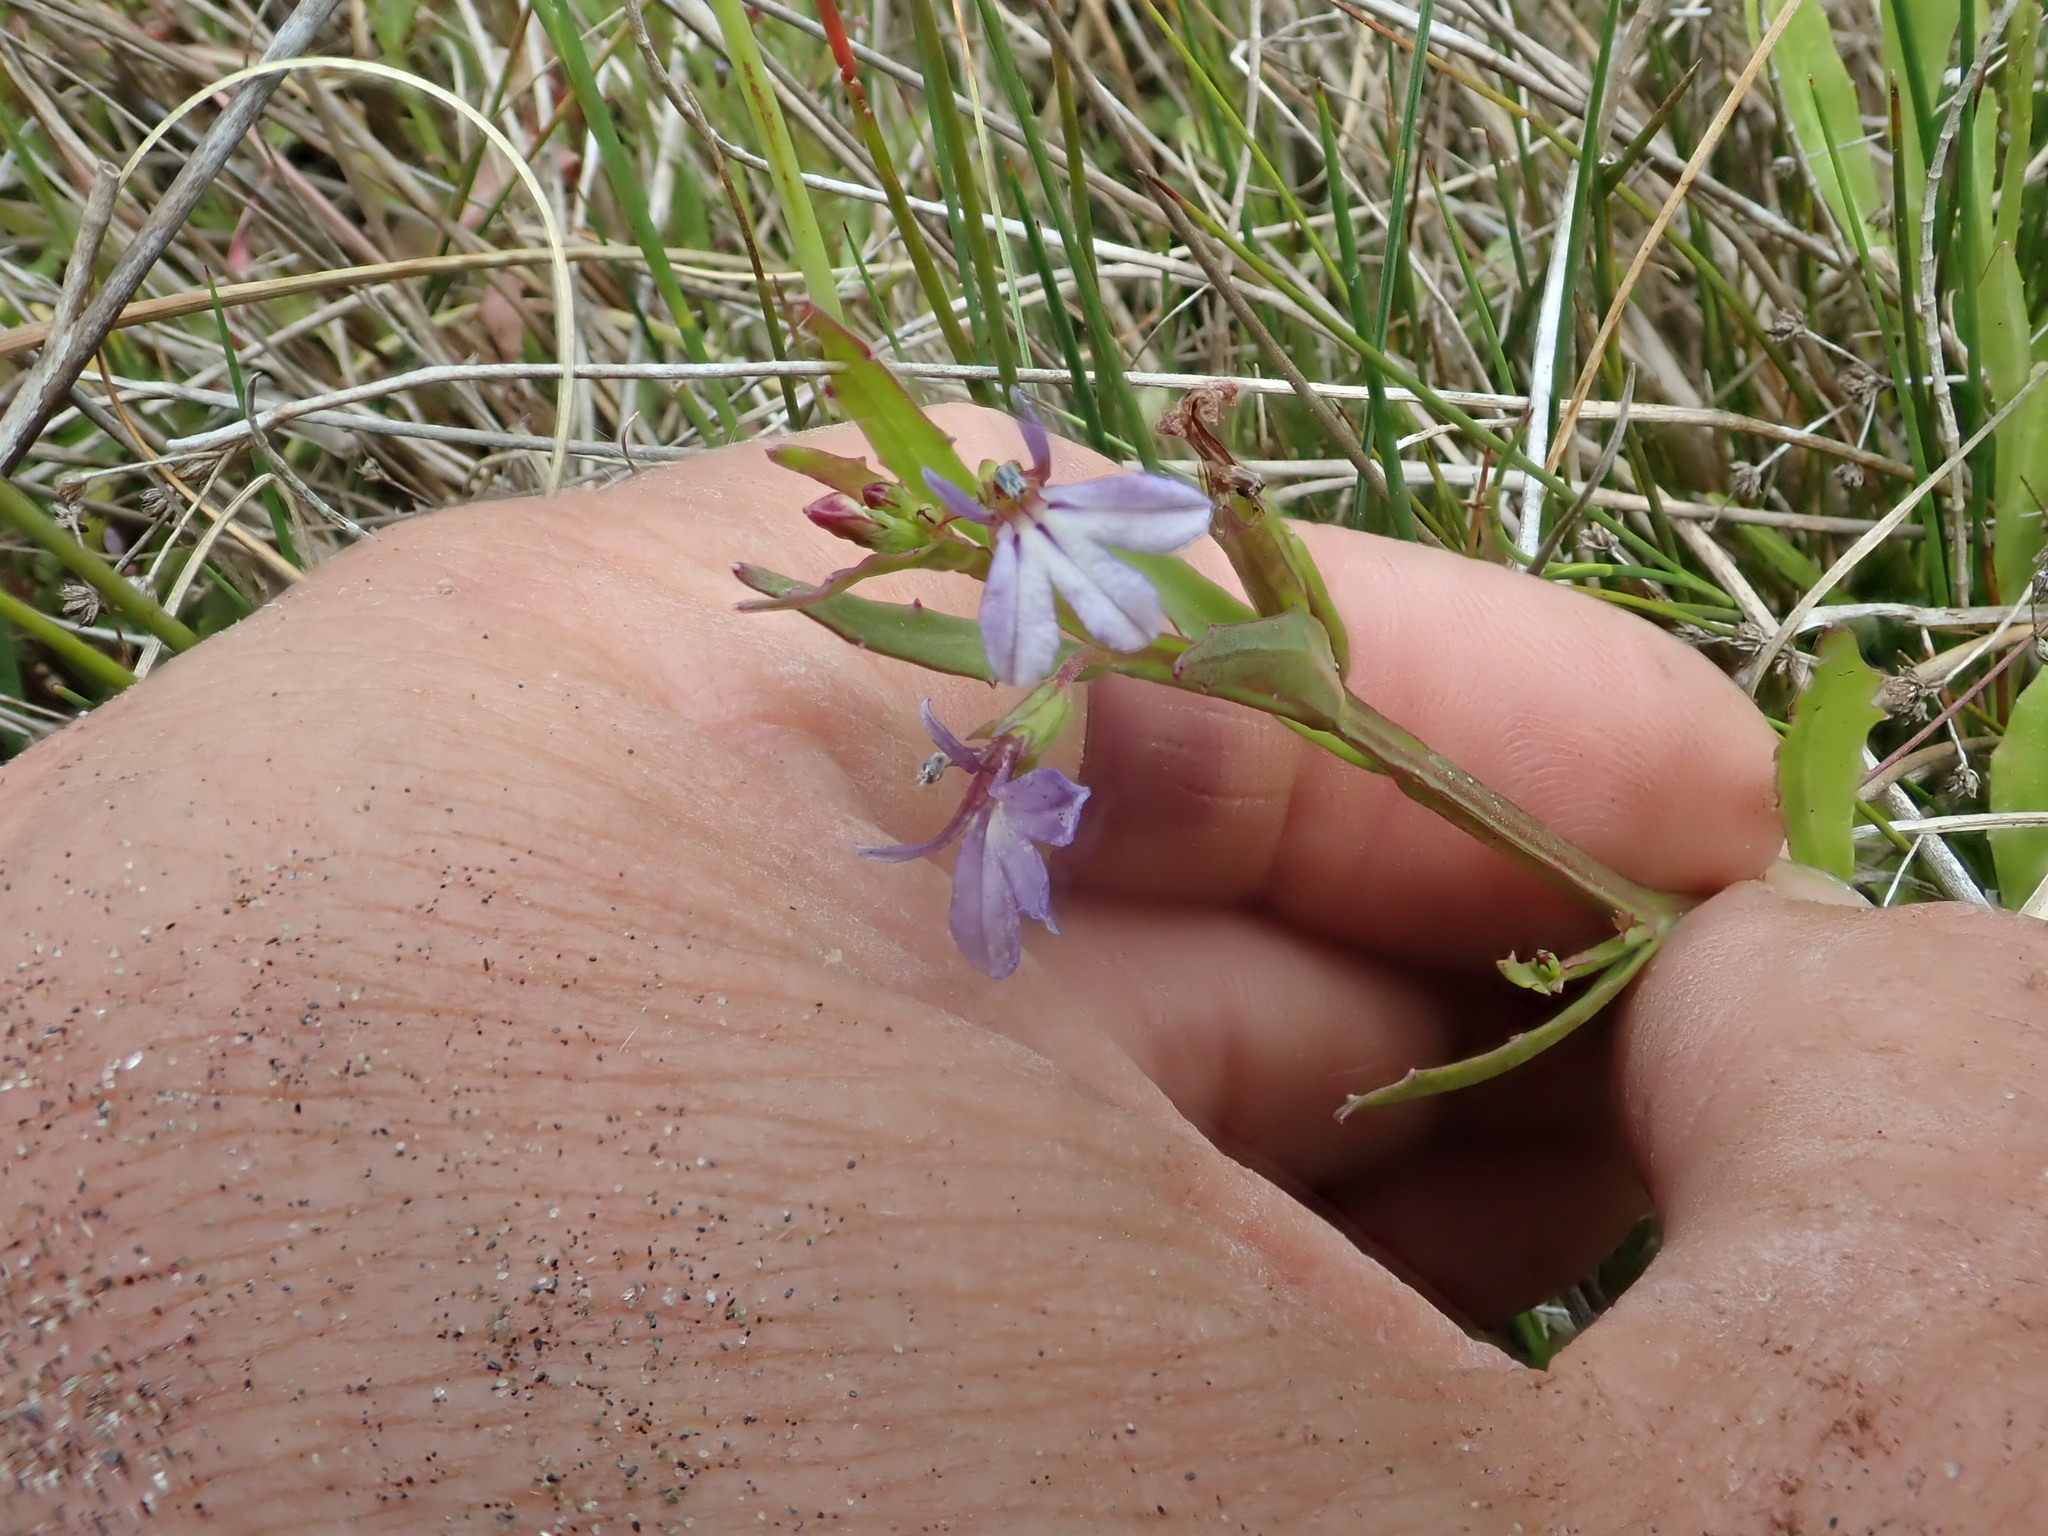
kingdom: Plantae
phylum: Tracheophyta
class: Magnoliopsida
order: Asterales
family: Campanulaceae
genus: Lobelia
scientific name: Lobelia anceps
